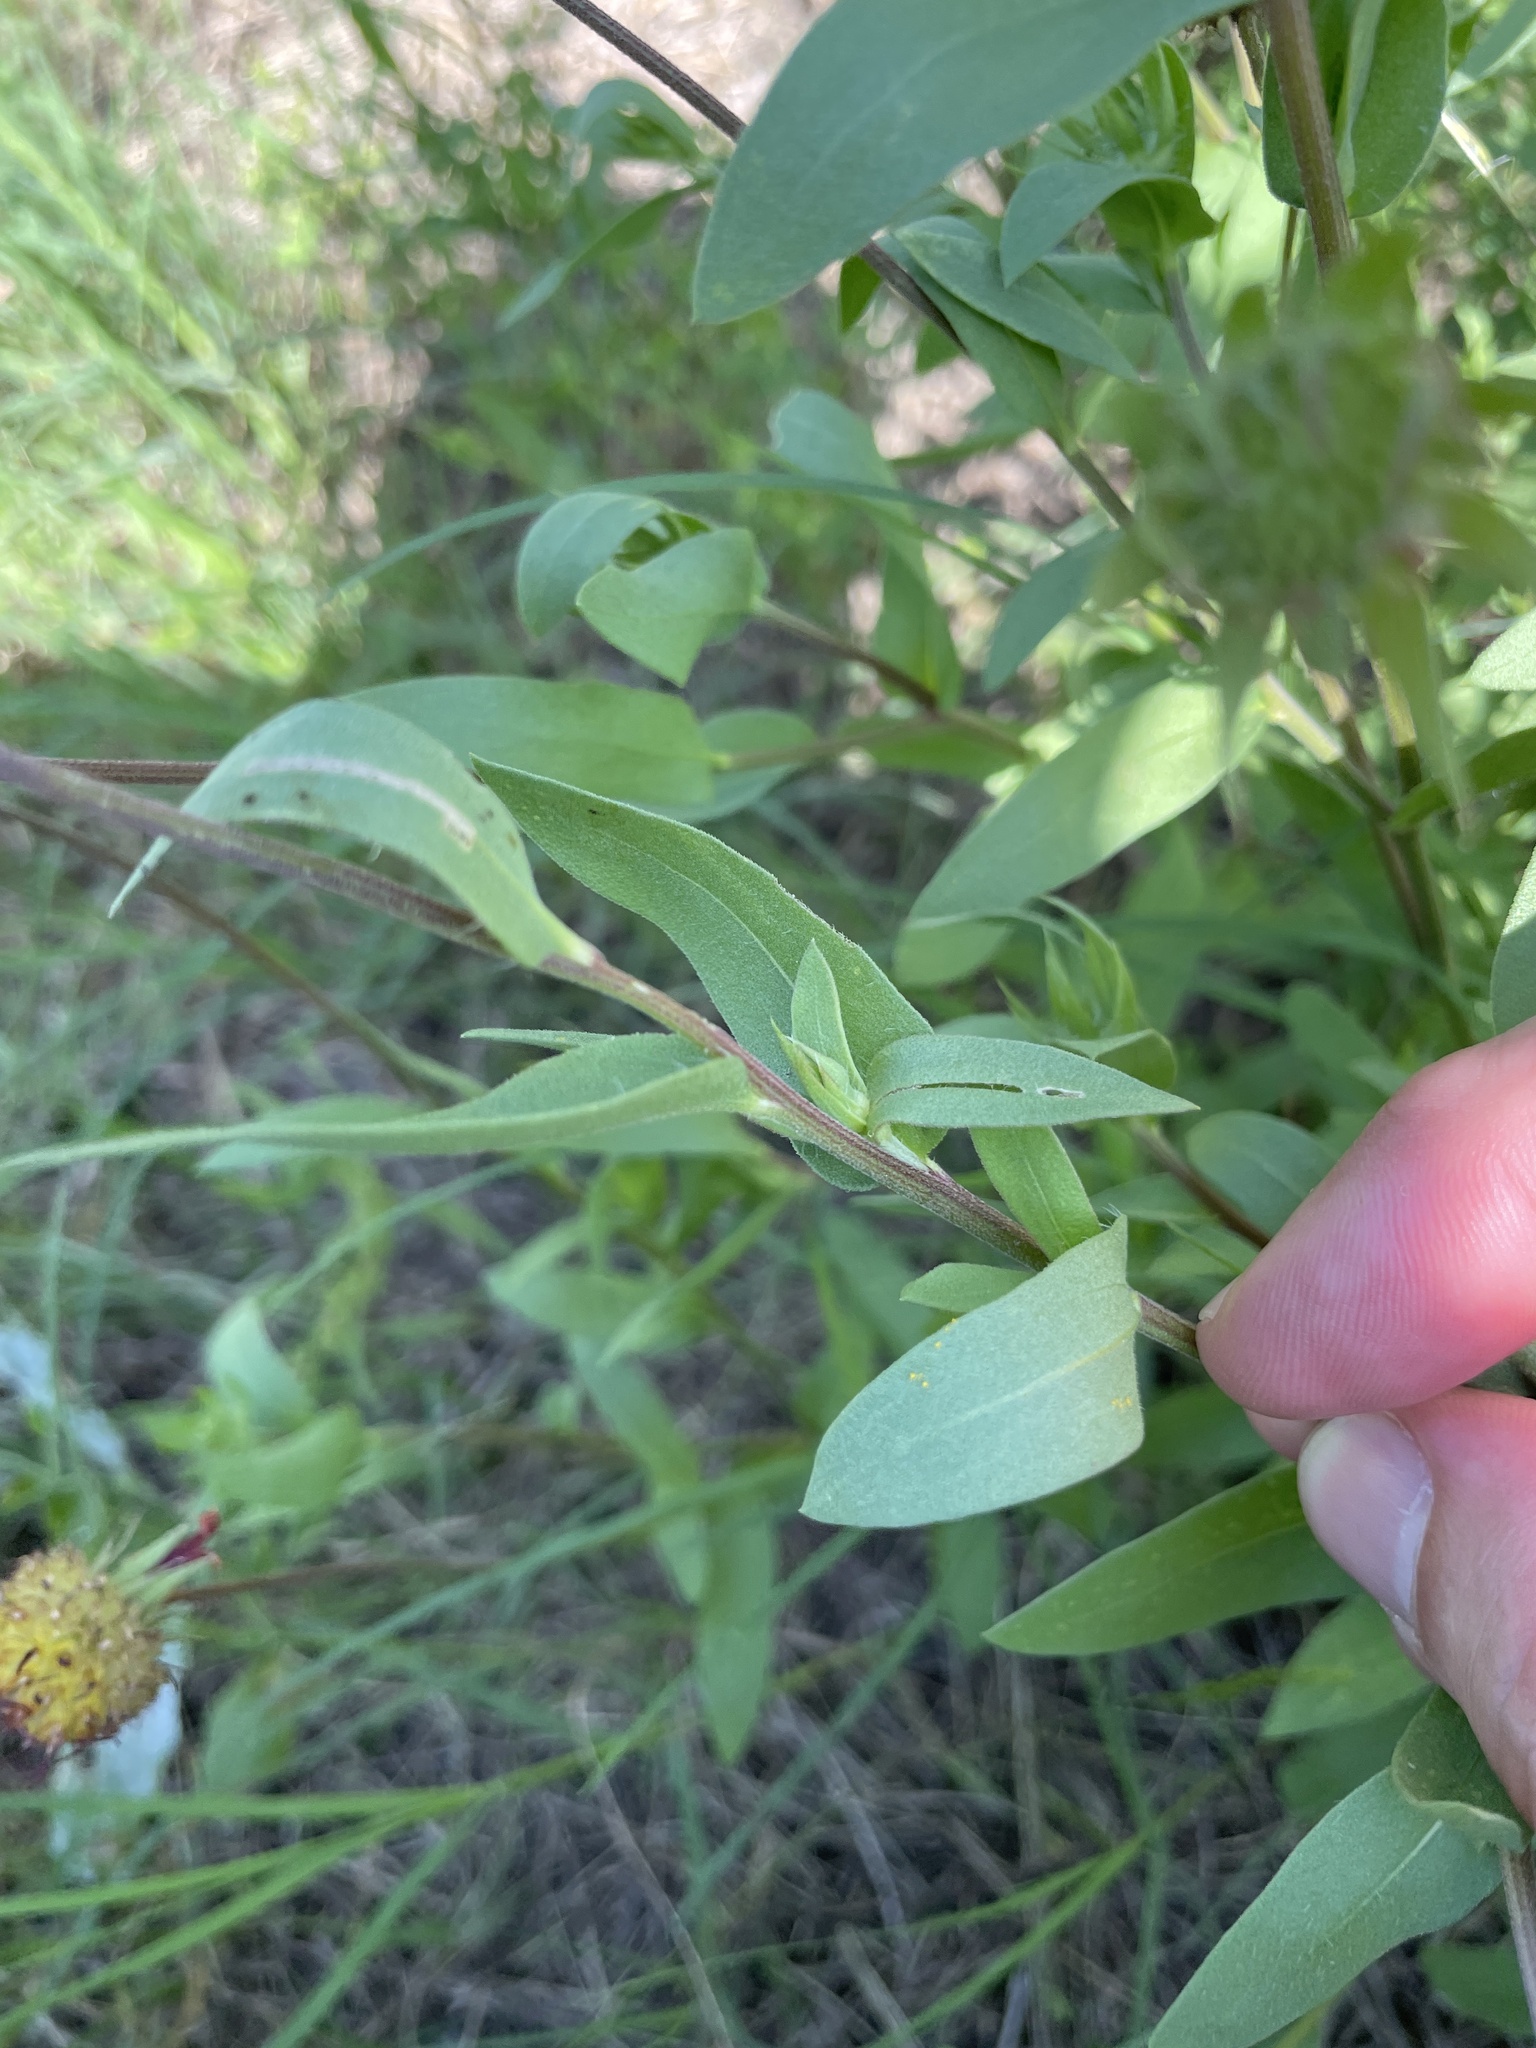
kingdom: Plantae
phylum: Tracheophyta
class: Magnoliopsida
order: Asterales
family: Asteraceae
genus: Gaillardia
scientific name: Gaillardia pulchella
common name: Firewheel
